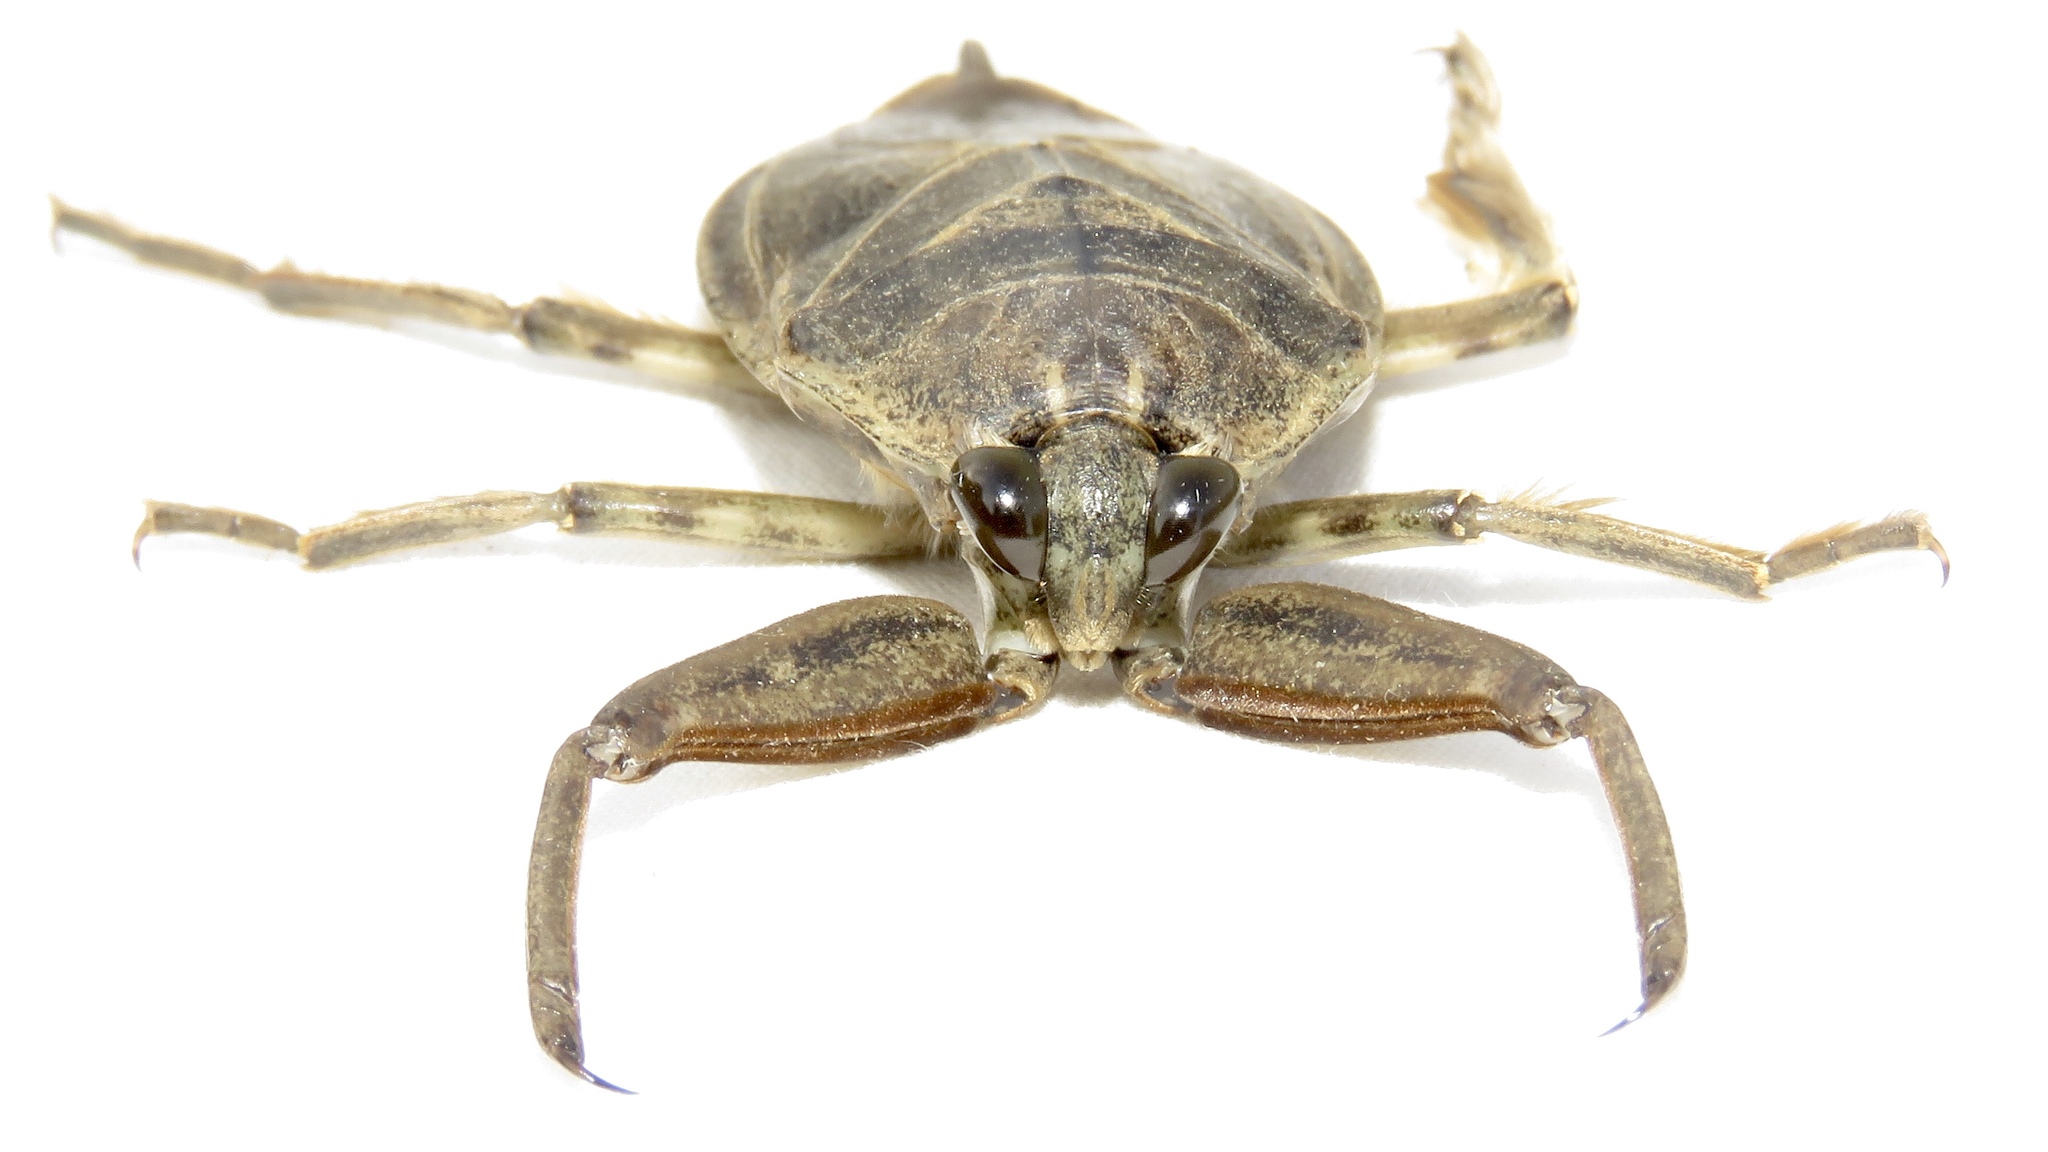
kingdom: Animalia
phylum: Arthropoda
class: Insecta
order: Hemiptera
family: Belostomatidae
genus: Lethocerus
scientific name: Lethocerus americanus
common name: Giant water bug
